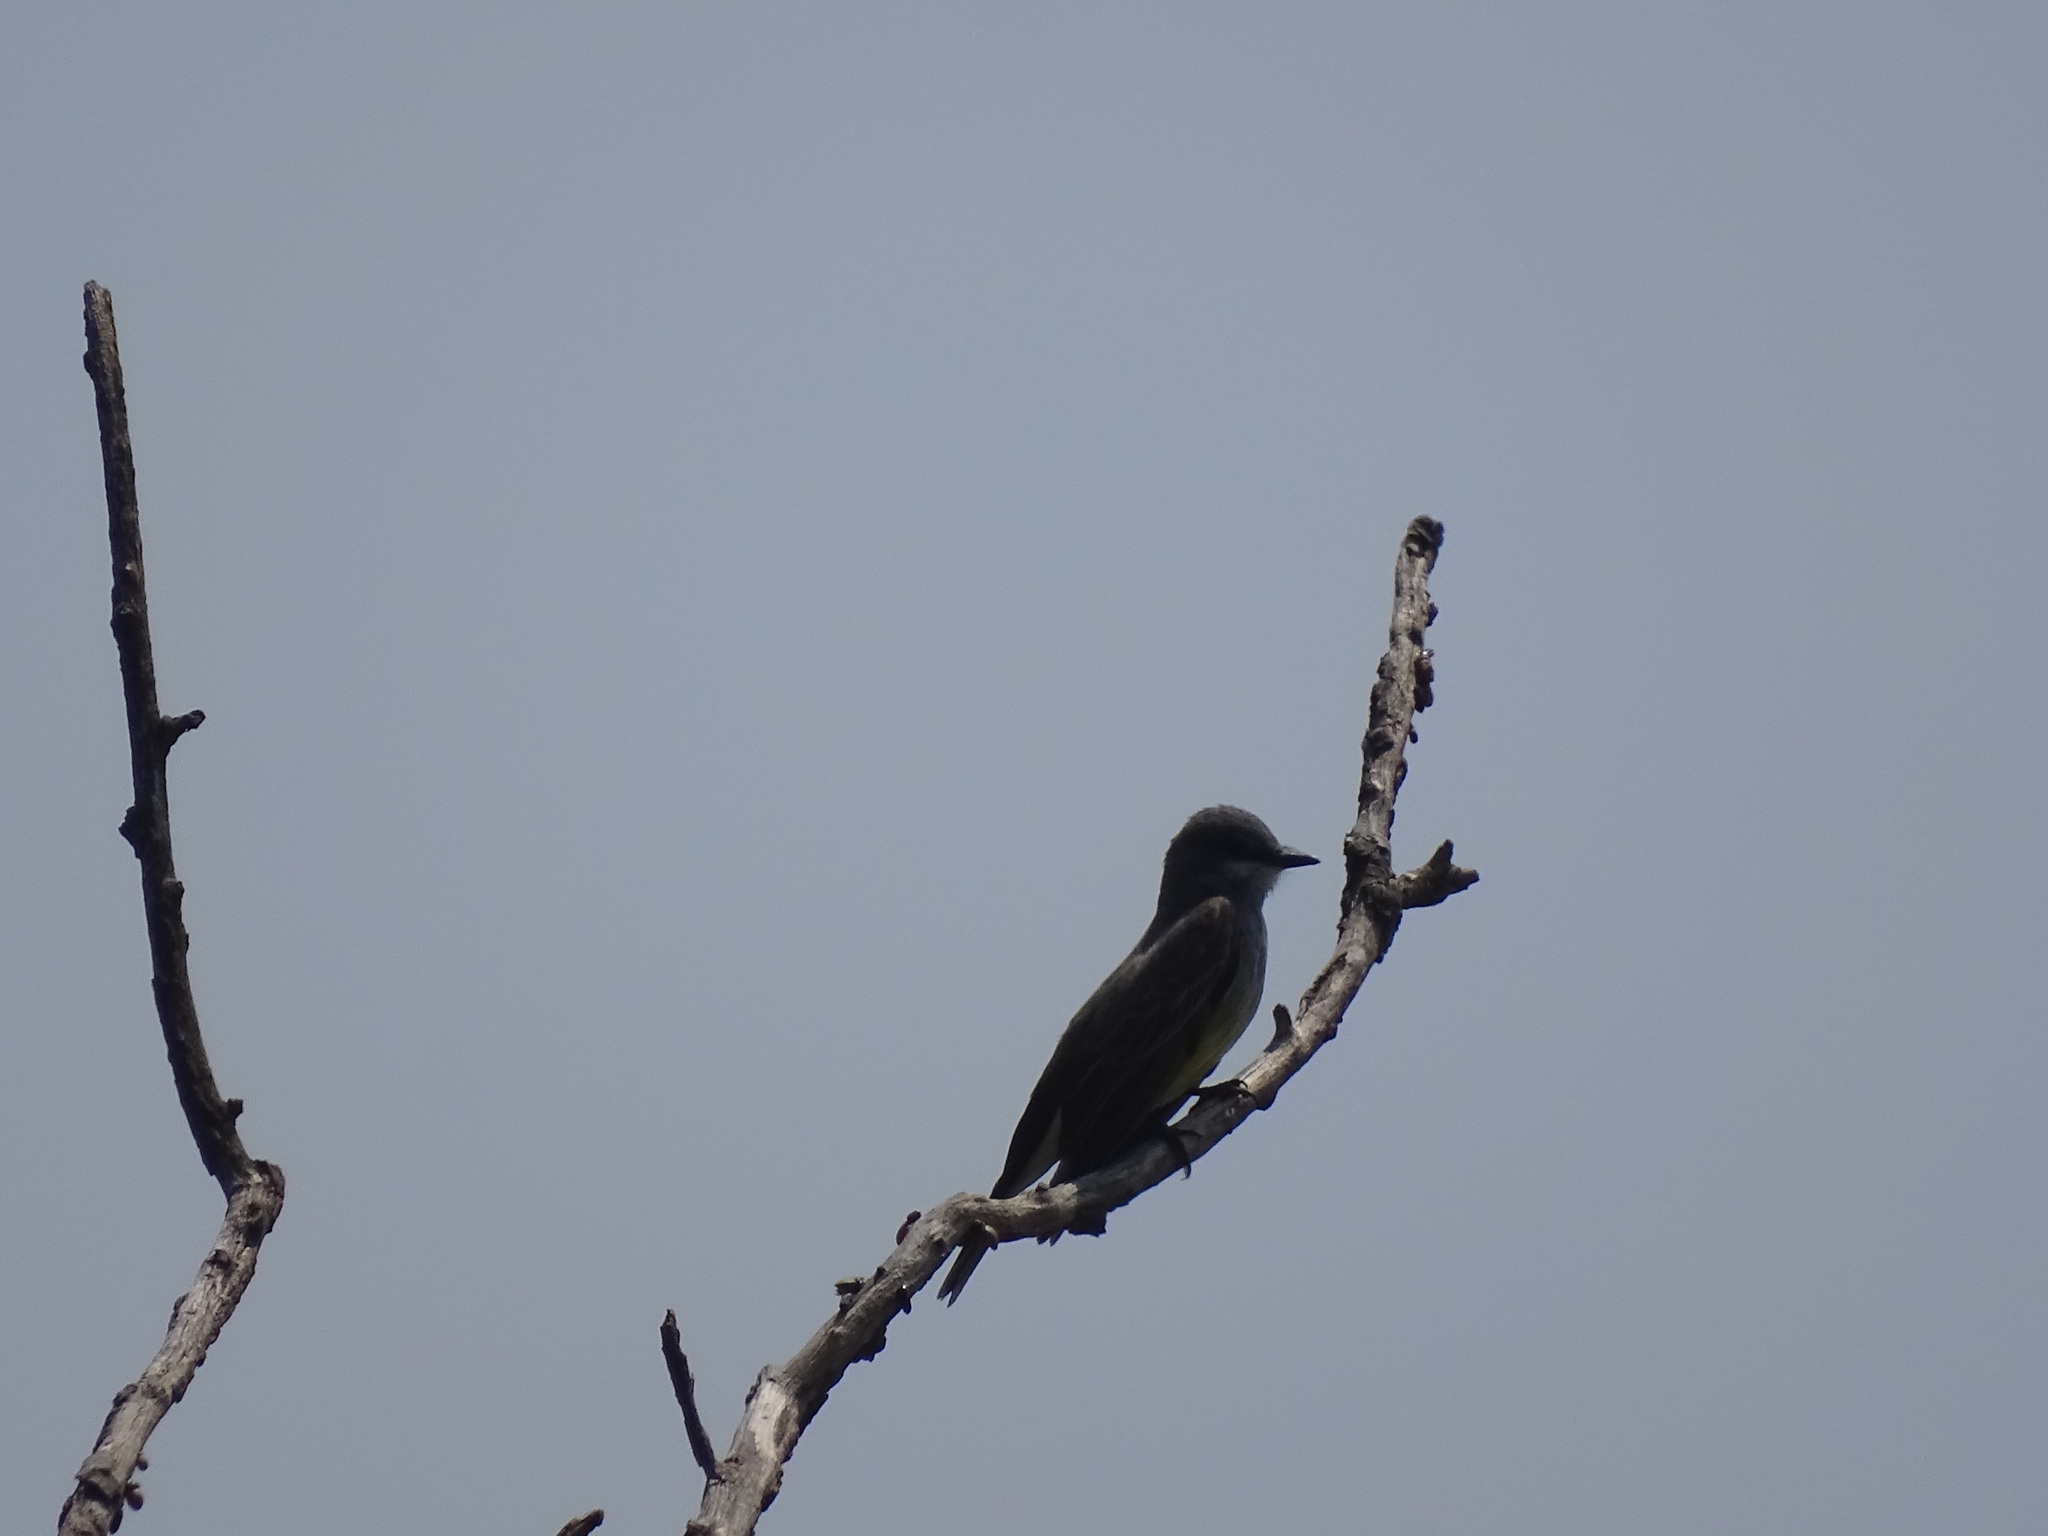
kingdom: Animalia
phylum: Chordata
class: Aves
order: Passeriformes
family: Tyrannidae
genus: Tyrannus
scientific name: Tyrannus vociferans
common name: Cassin's kingbird
